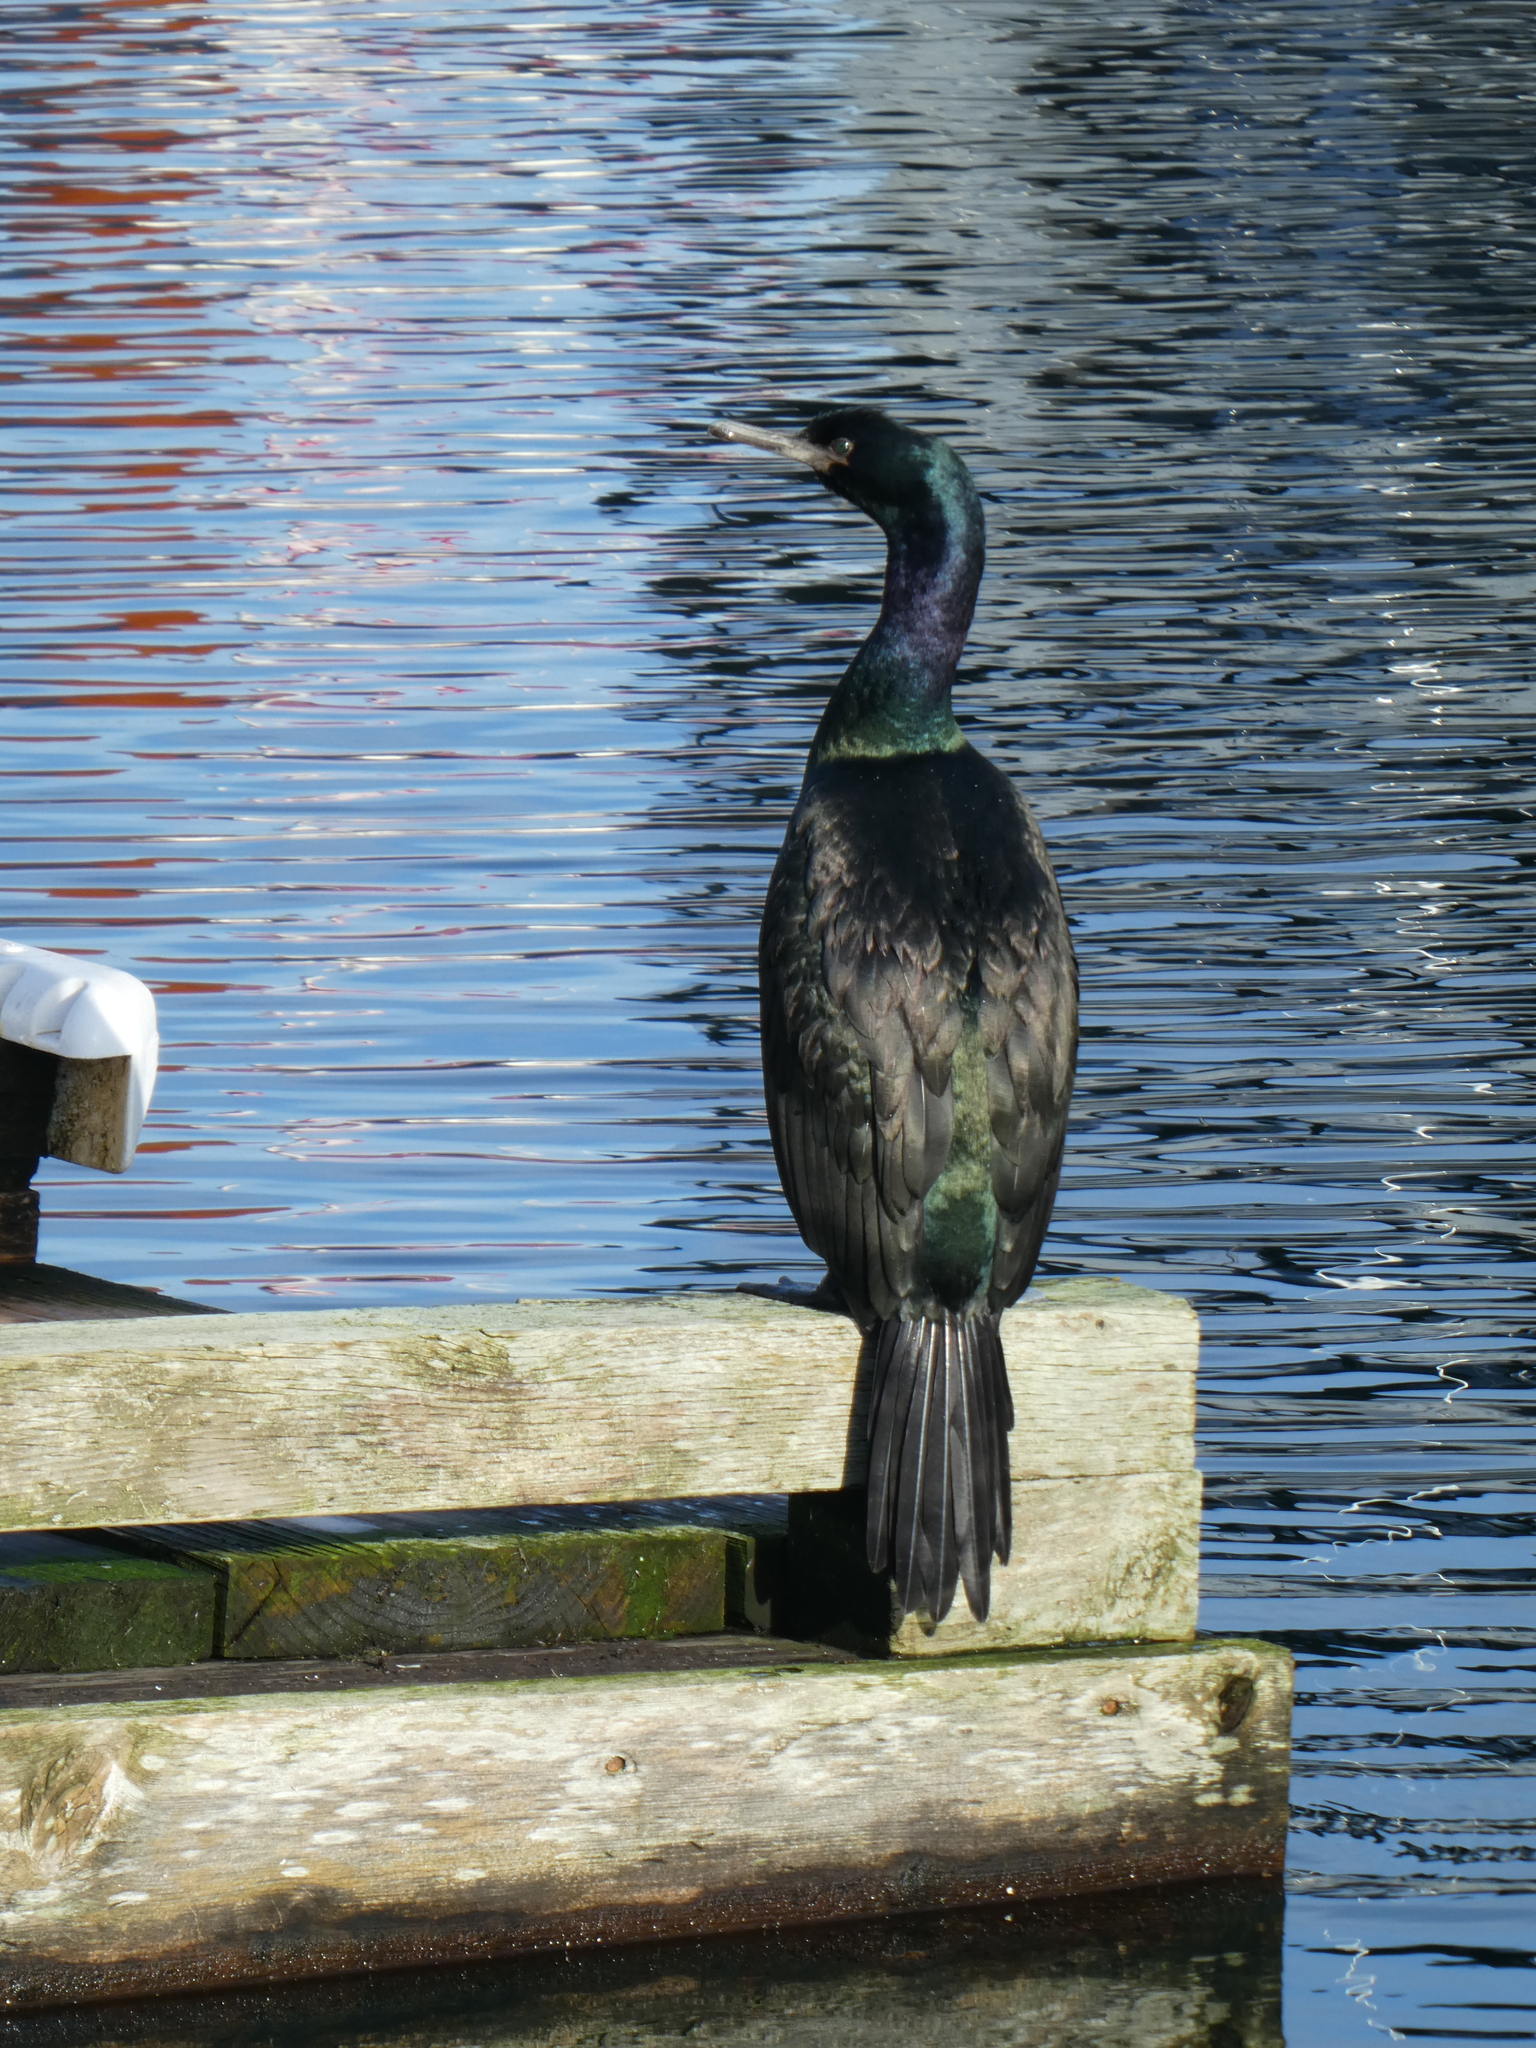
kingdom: Animalia
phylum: Chordata
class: Aves
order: Suliformes
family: Phalacrocoracidae
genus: Phalacrocorax
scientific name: Phalacrocorax pelagicus
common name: Pelagic cormorant
